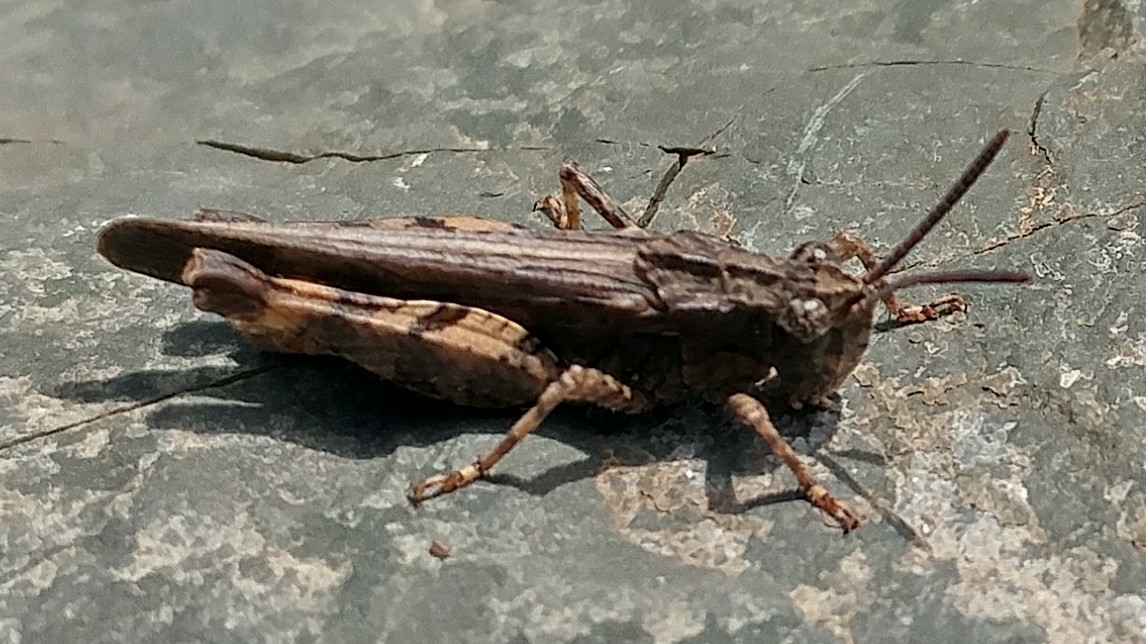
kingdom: Animalia
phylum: Arthropoda
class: Insecta
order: Orthoptera
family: Acrididae
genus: Chimarocephala
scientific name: Chimarocephala pacifica
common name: Painted meadow grasshopper
